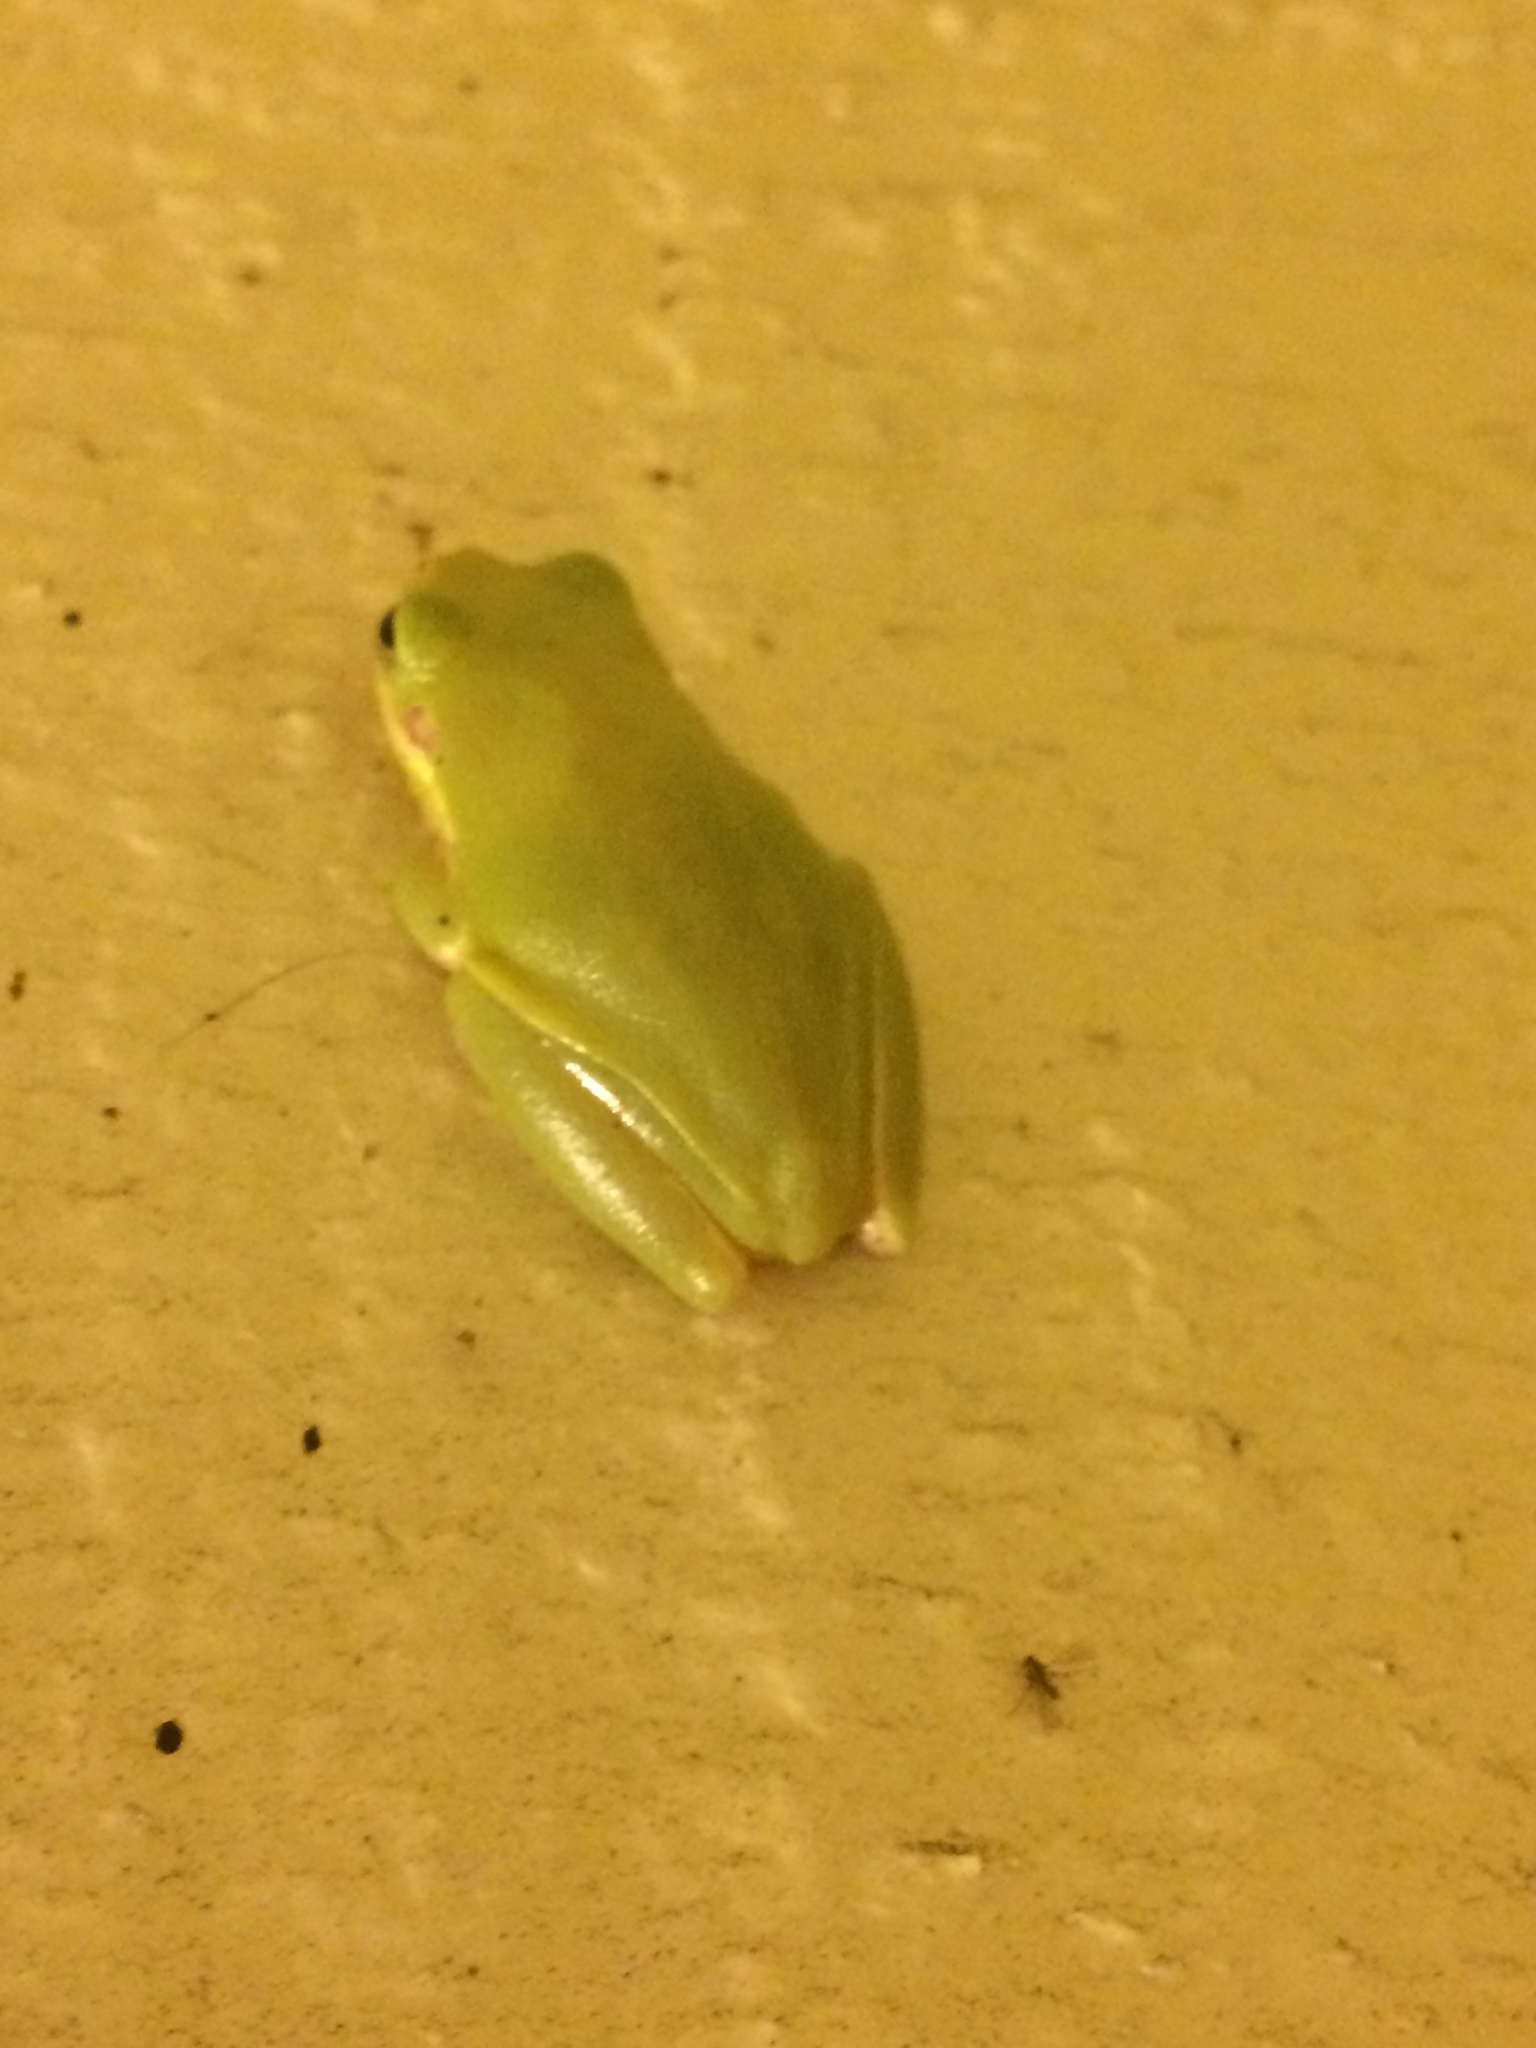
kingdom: Animalia
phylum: Chordata
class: Amphibia
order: Anura
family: Hylidae
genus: Dryophytes
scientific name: Dryophytes squirellus
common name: Squirrel treefrog
